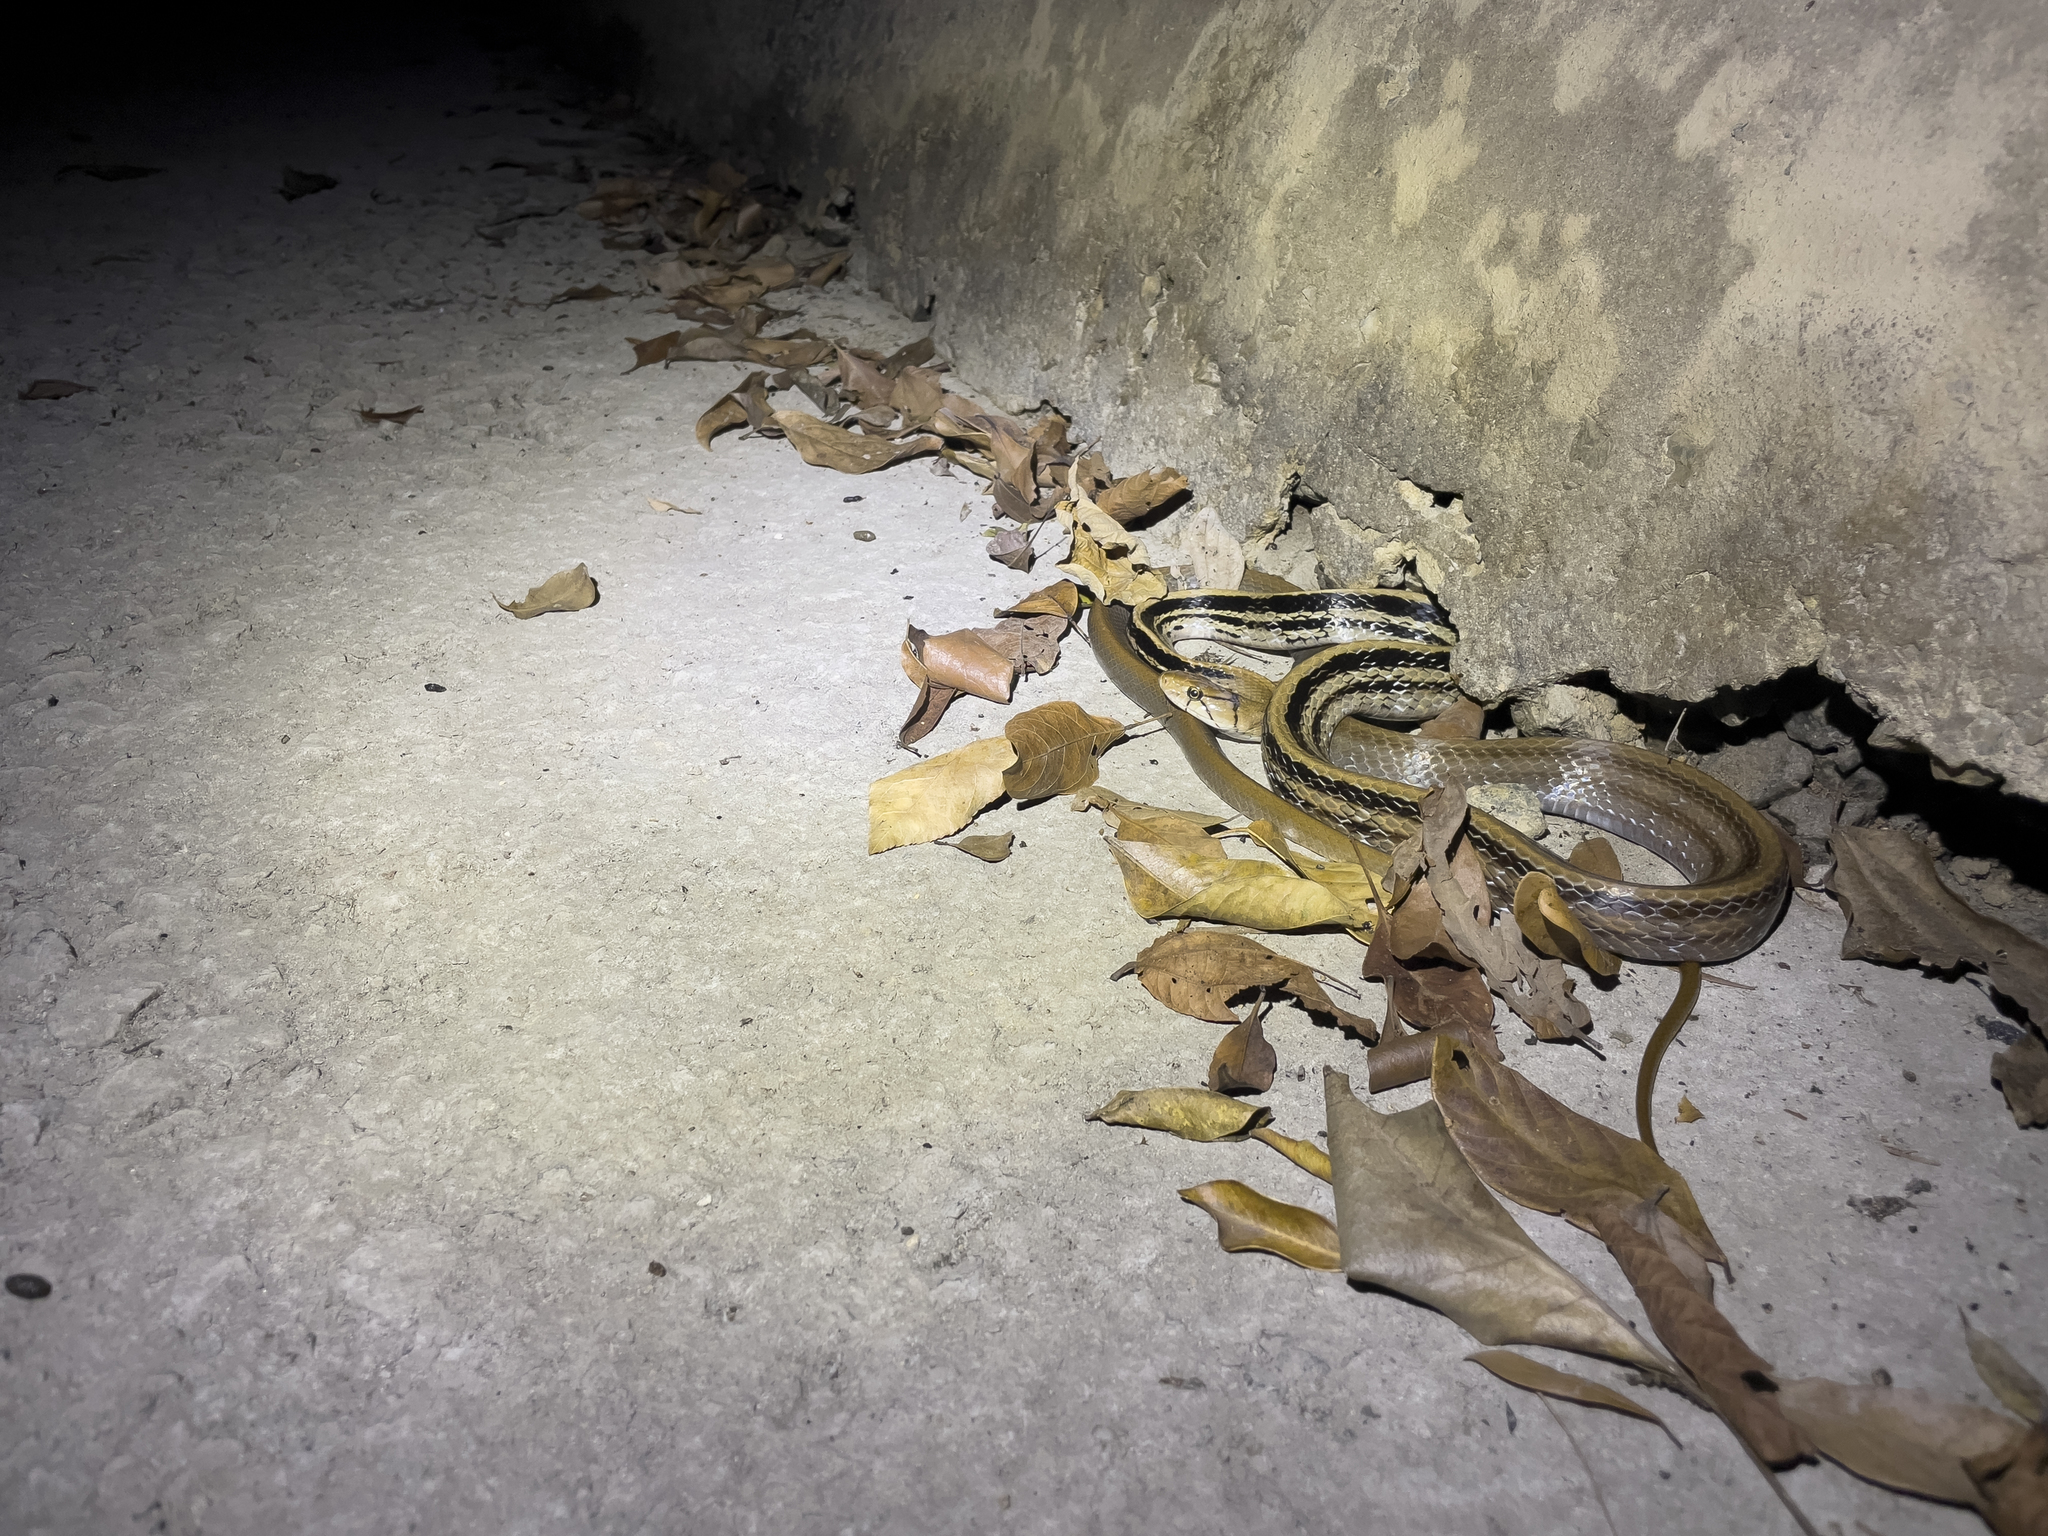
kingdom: Animalia
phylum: Chordata
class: Squamata
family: Colubridae
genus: Coelognathus
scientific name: Coelognathus radiatus
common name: Copperhead rat snake
